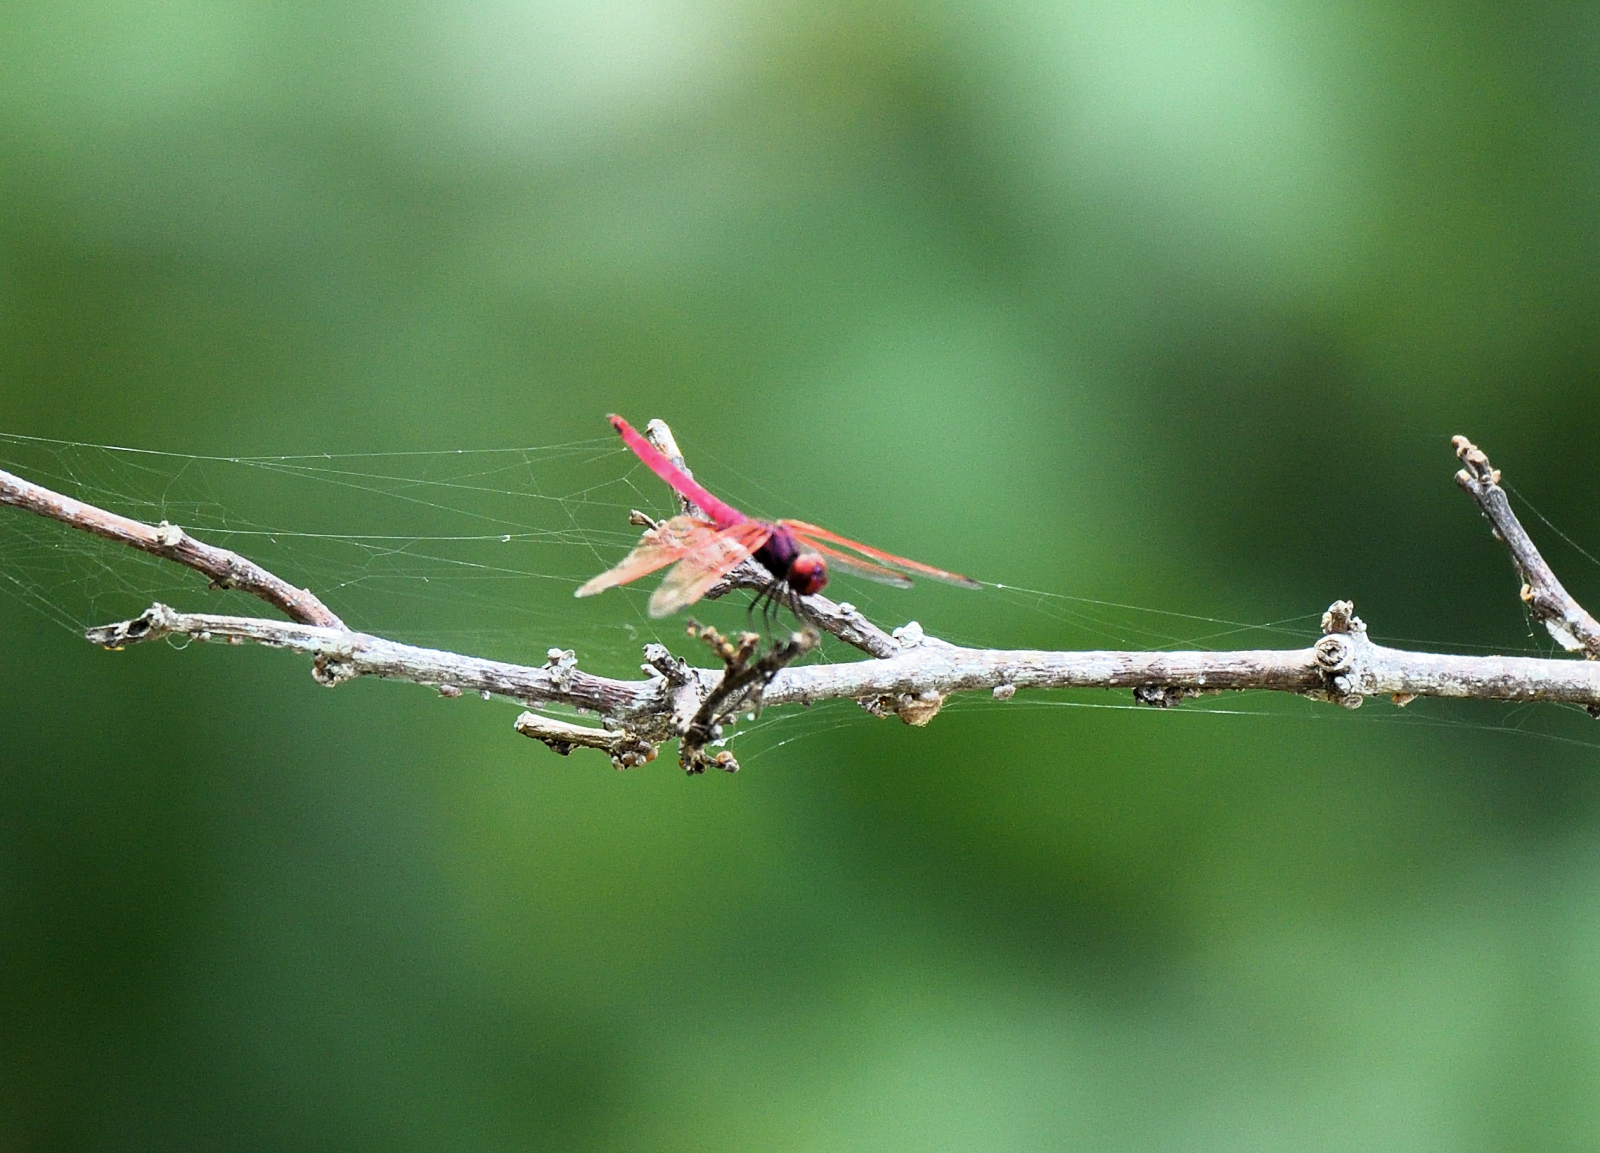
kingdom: Animalia
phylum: Arthropoda
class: Insecta
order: Odonata
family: Libellulidae
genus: Trithemis
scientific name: Trithemis aurora
